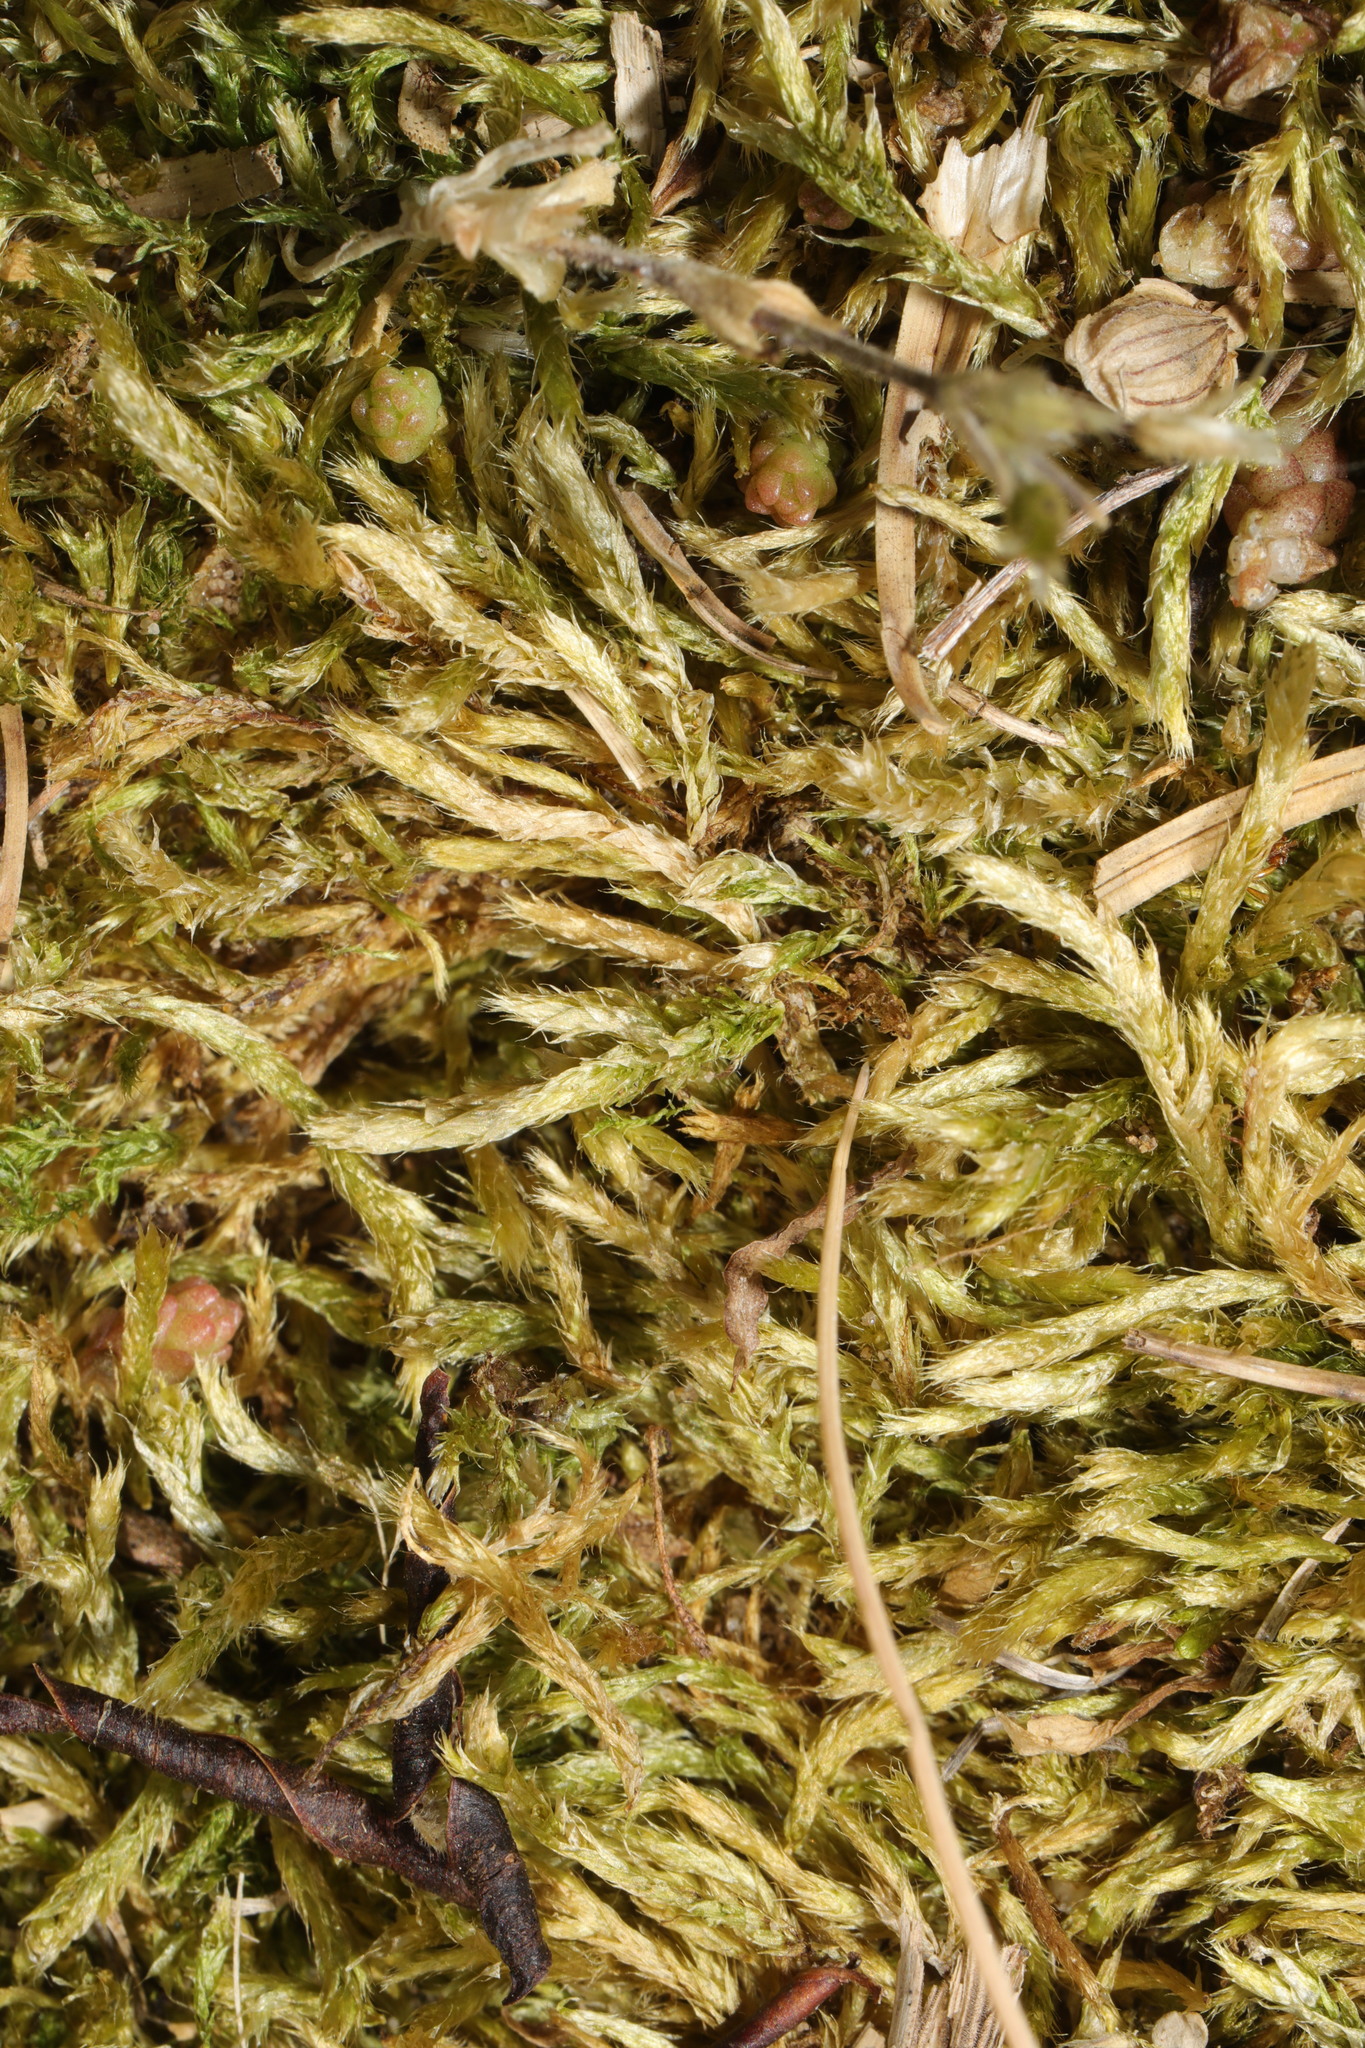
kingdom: Plantae
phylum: Bryophyta
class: Bryopsida
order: Hypnales
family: Brachytheciaceae
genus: Brachythecium
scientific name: Brachythecium albicans
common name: Whitish ragged moss
